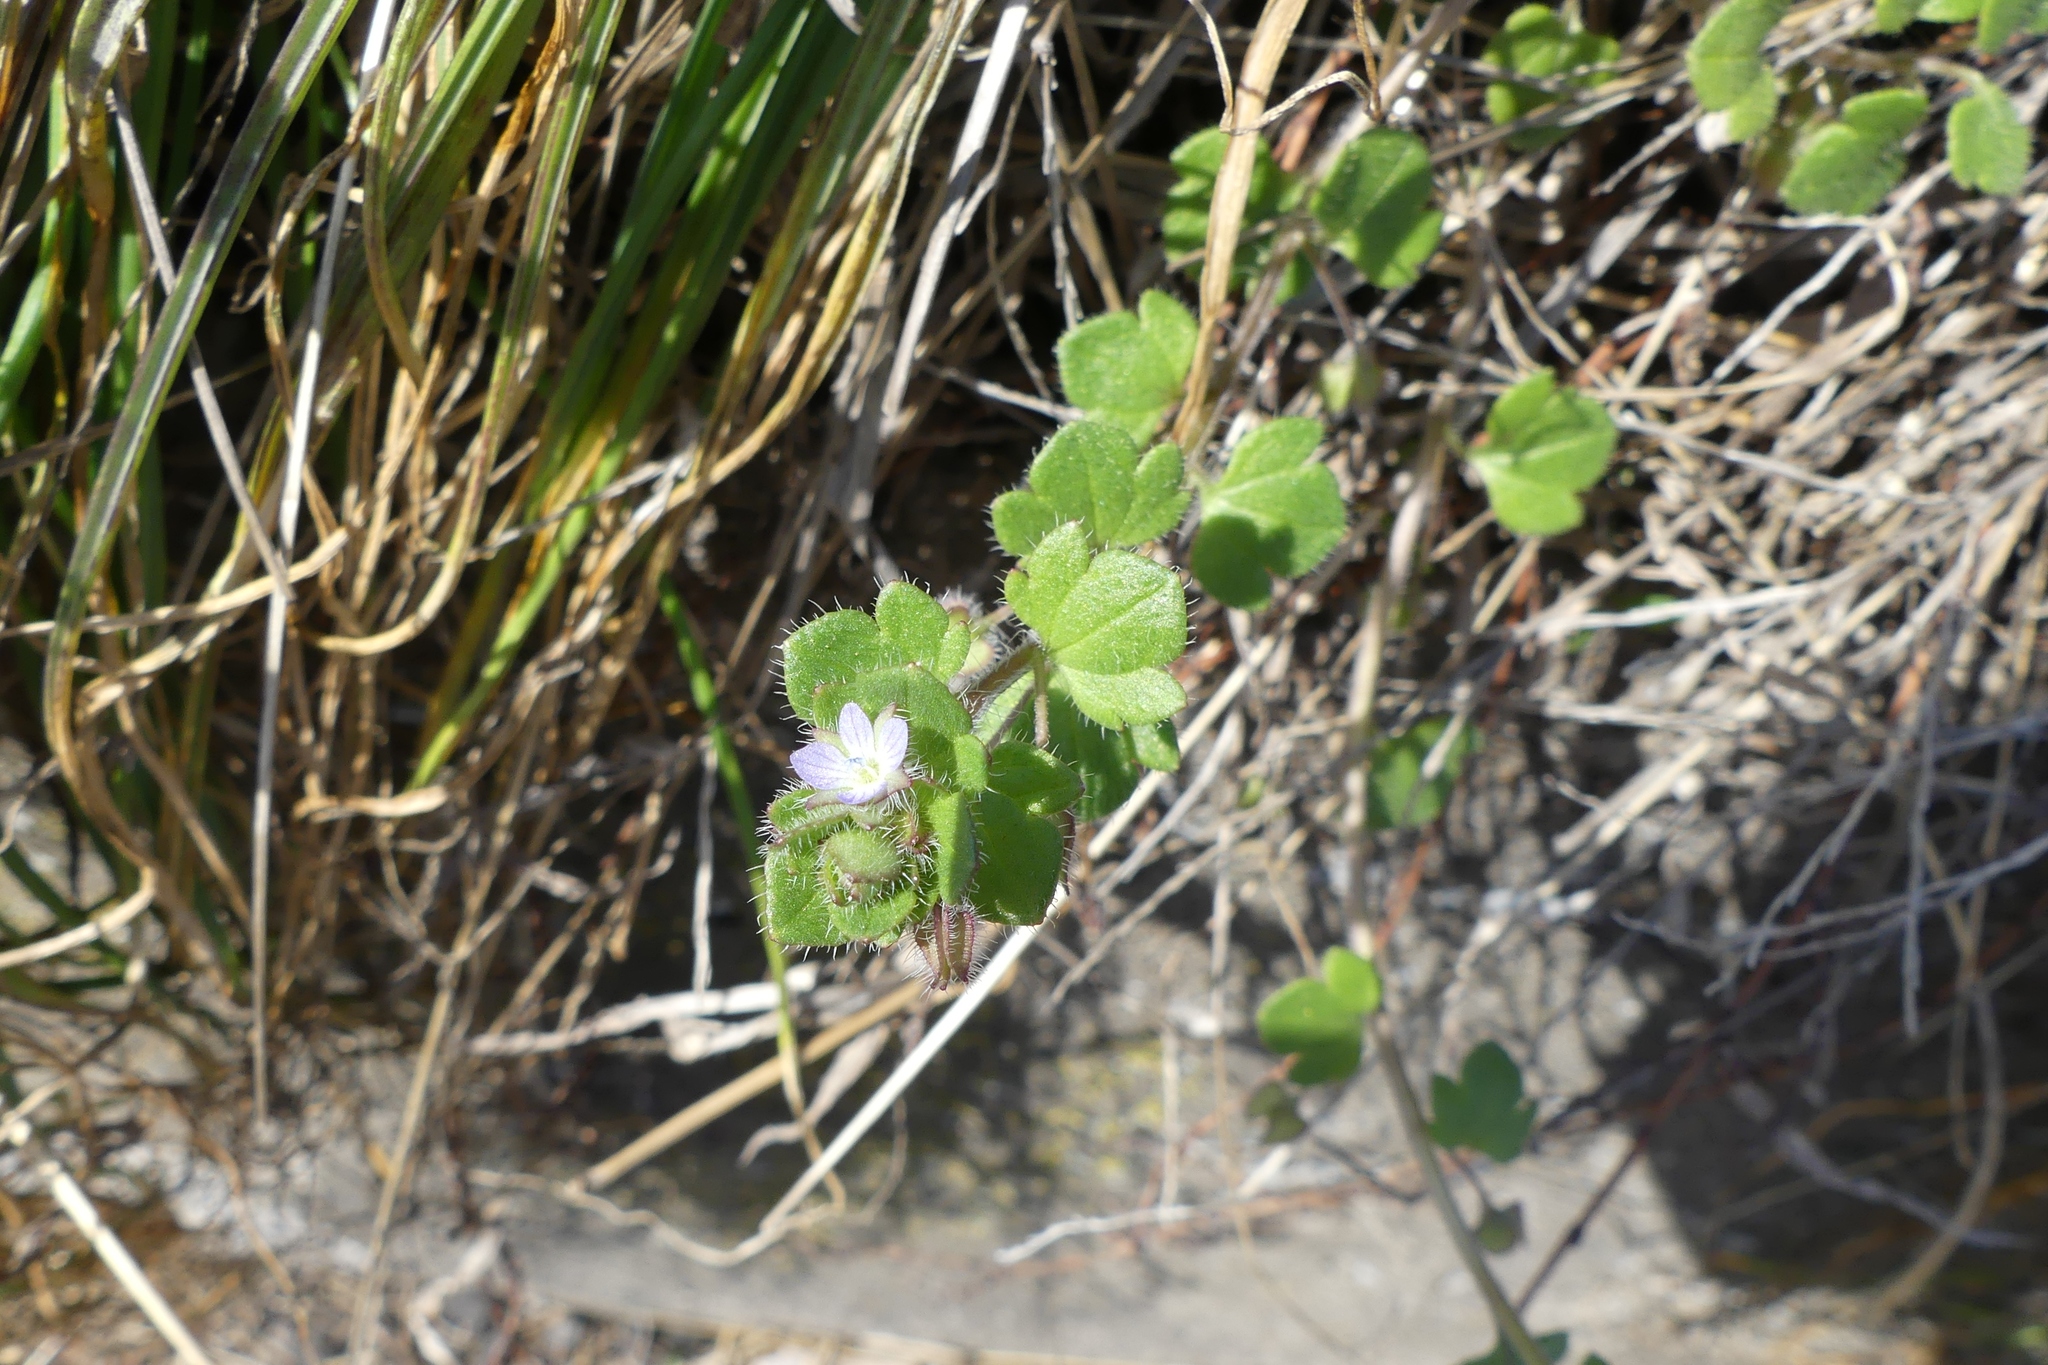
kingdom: Plantae
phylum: Tracheophyta
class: Magnoliopsida
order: Lamiales
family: Plantaginaceae
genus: Veronica
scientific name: Veronica hederifolia
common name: Ivy-leaved speedwell
